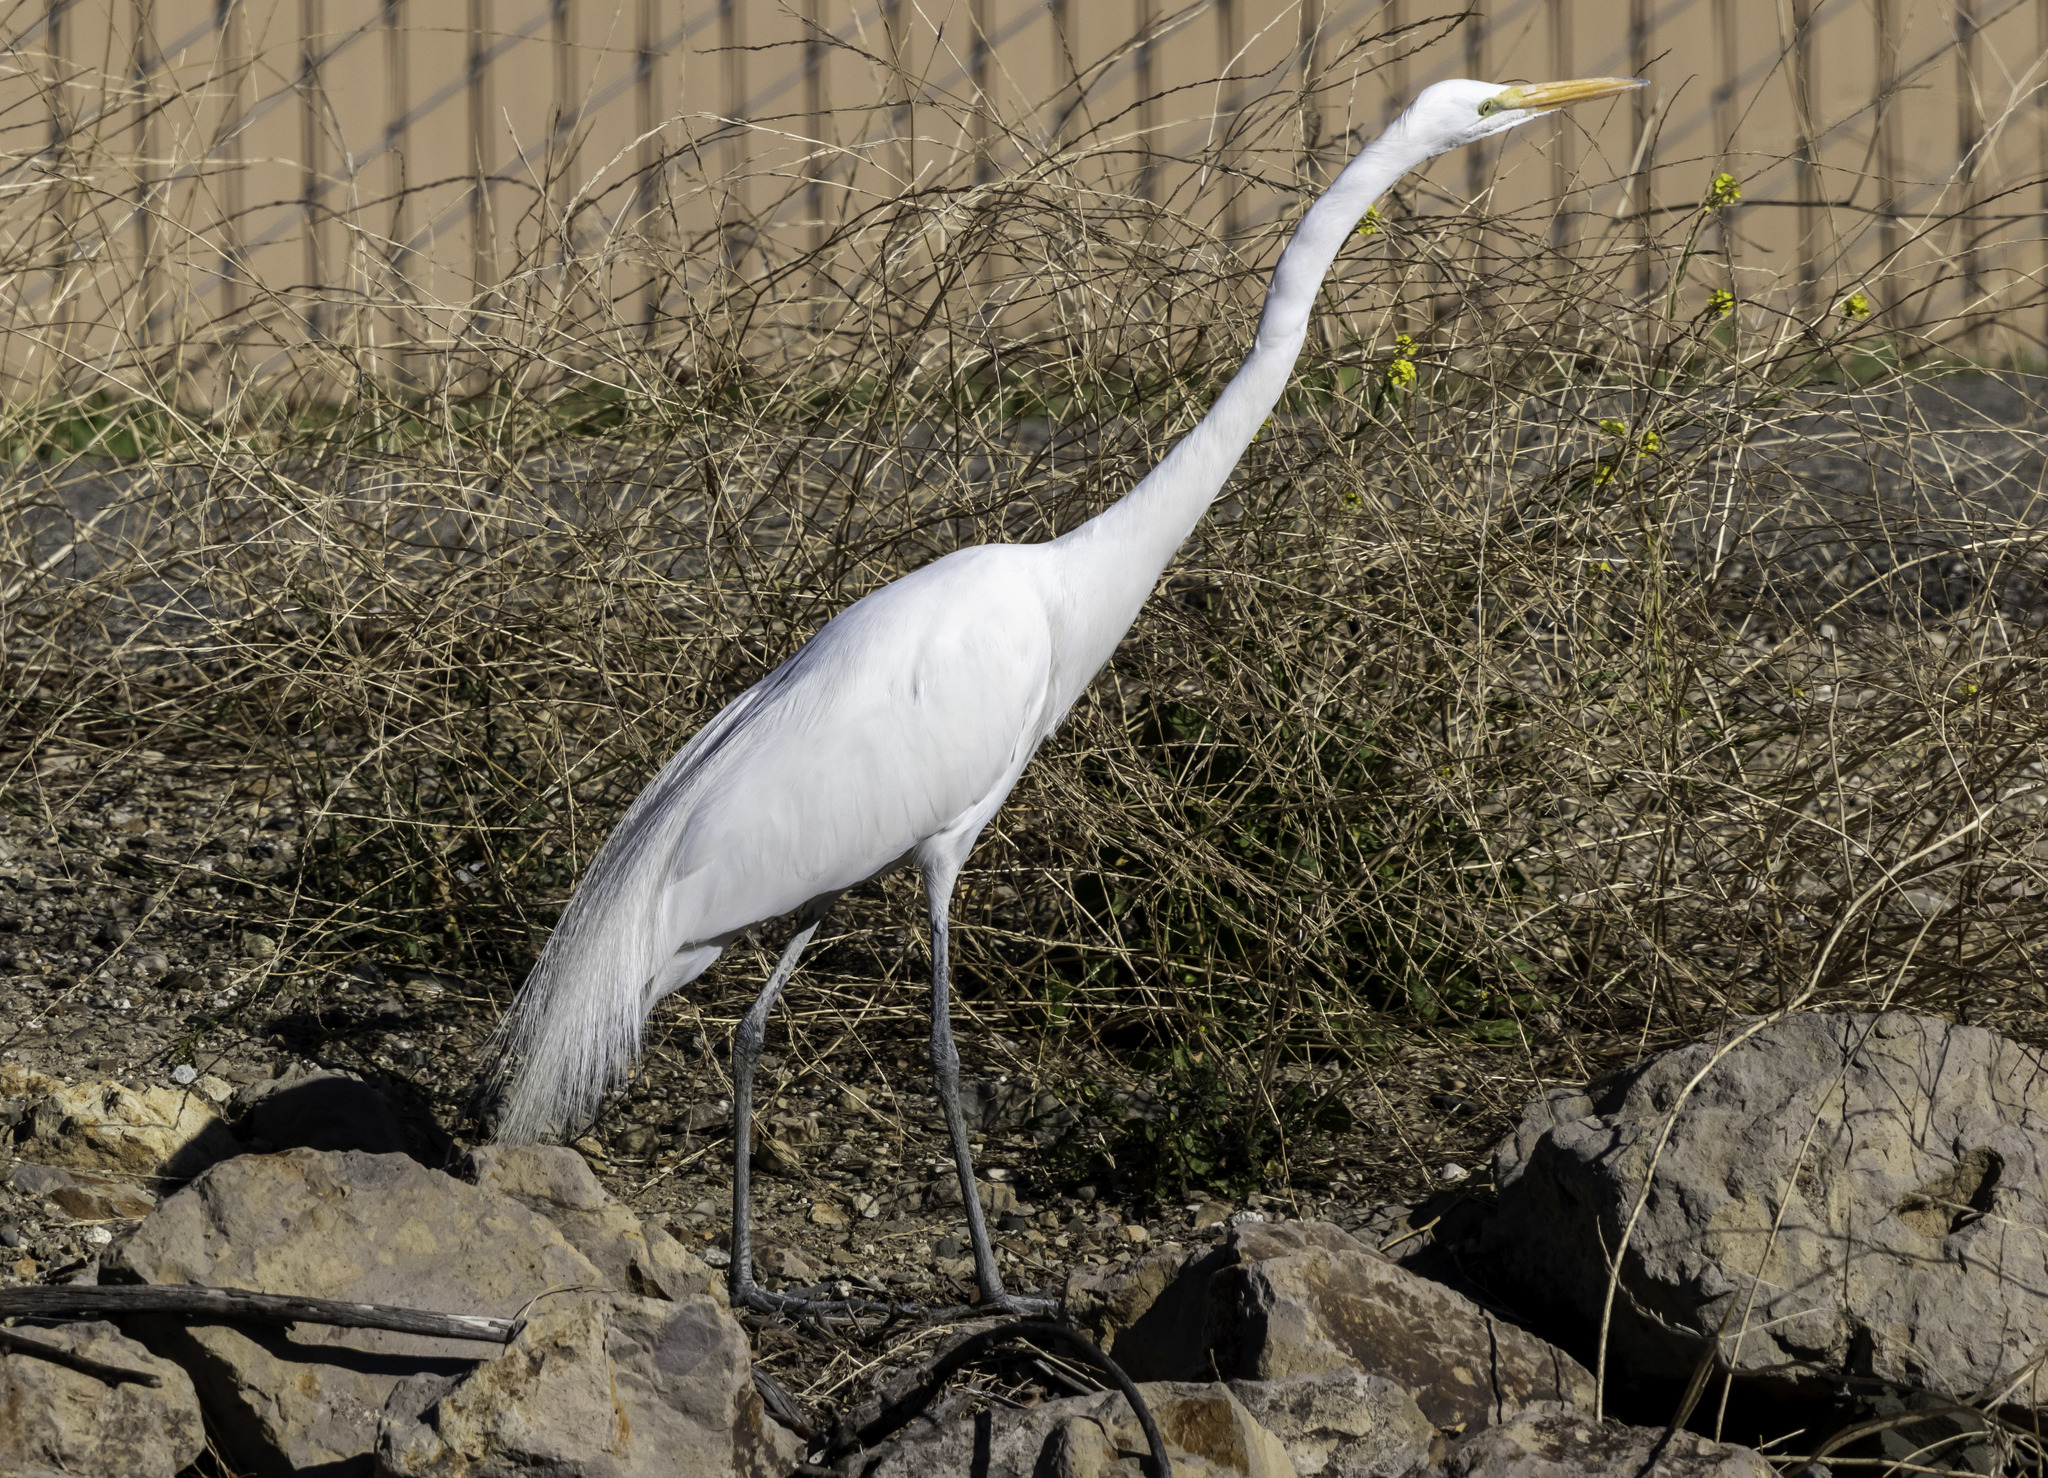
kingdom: Animalia
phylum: Chordata
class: Aves
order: Pelecaniformes
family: Ardeidae
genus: Ardea
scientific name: Ardea alba
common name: Great egret
